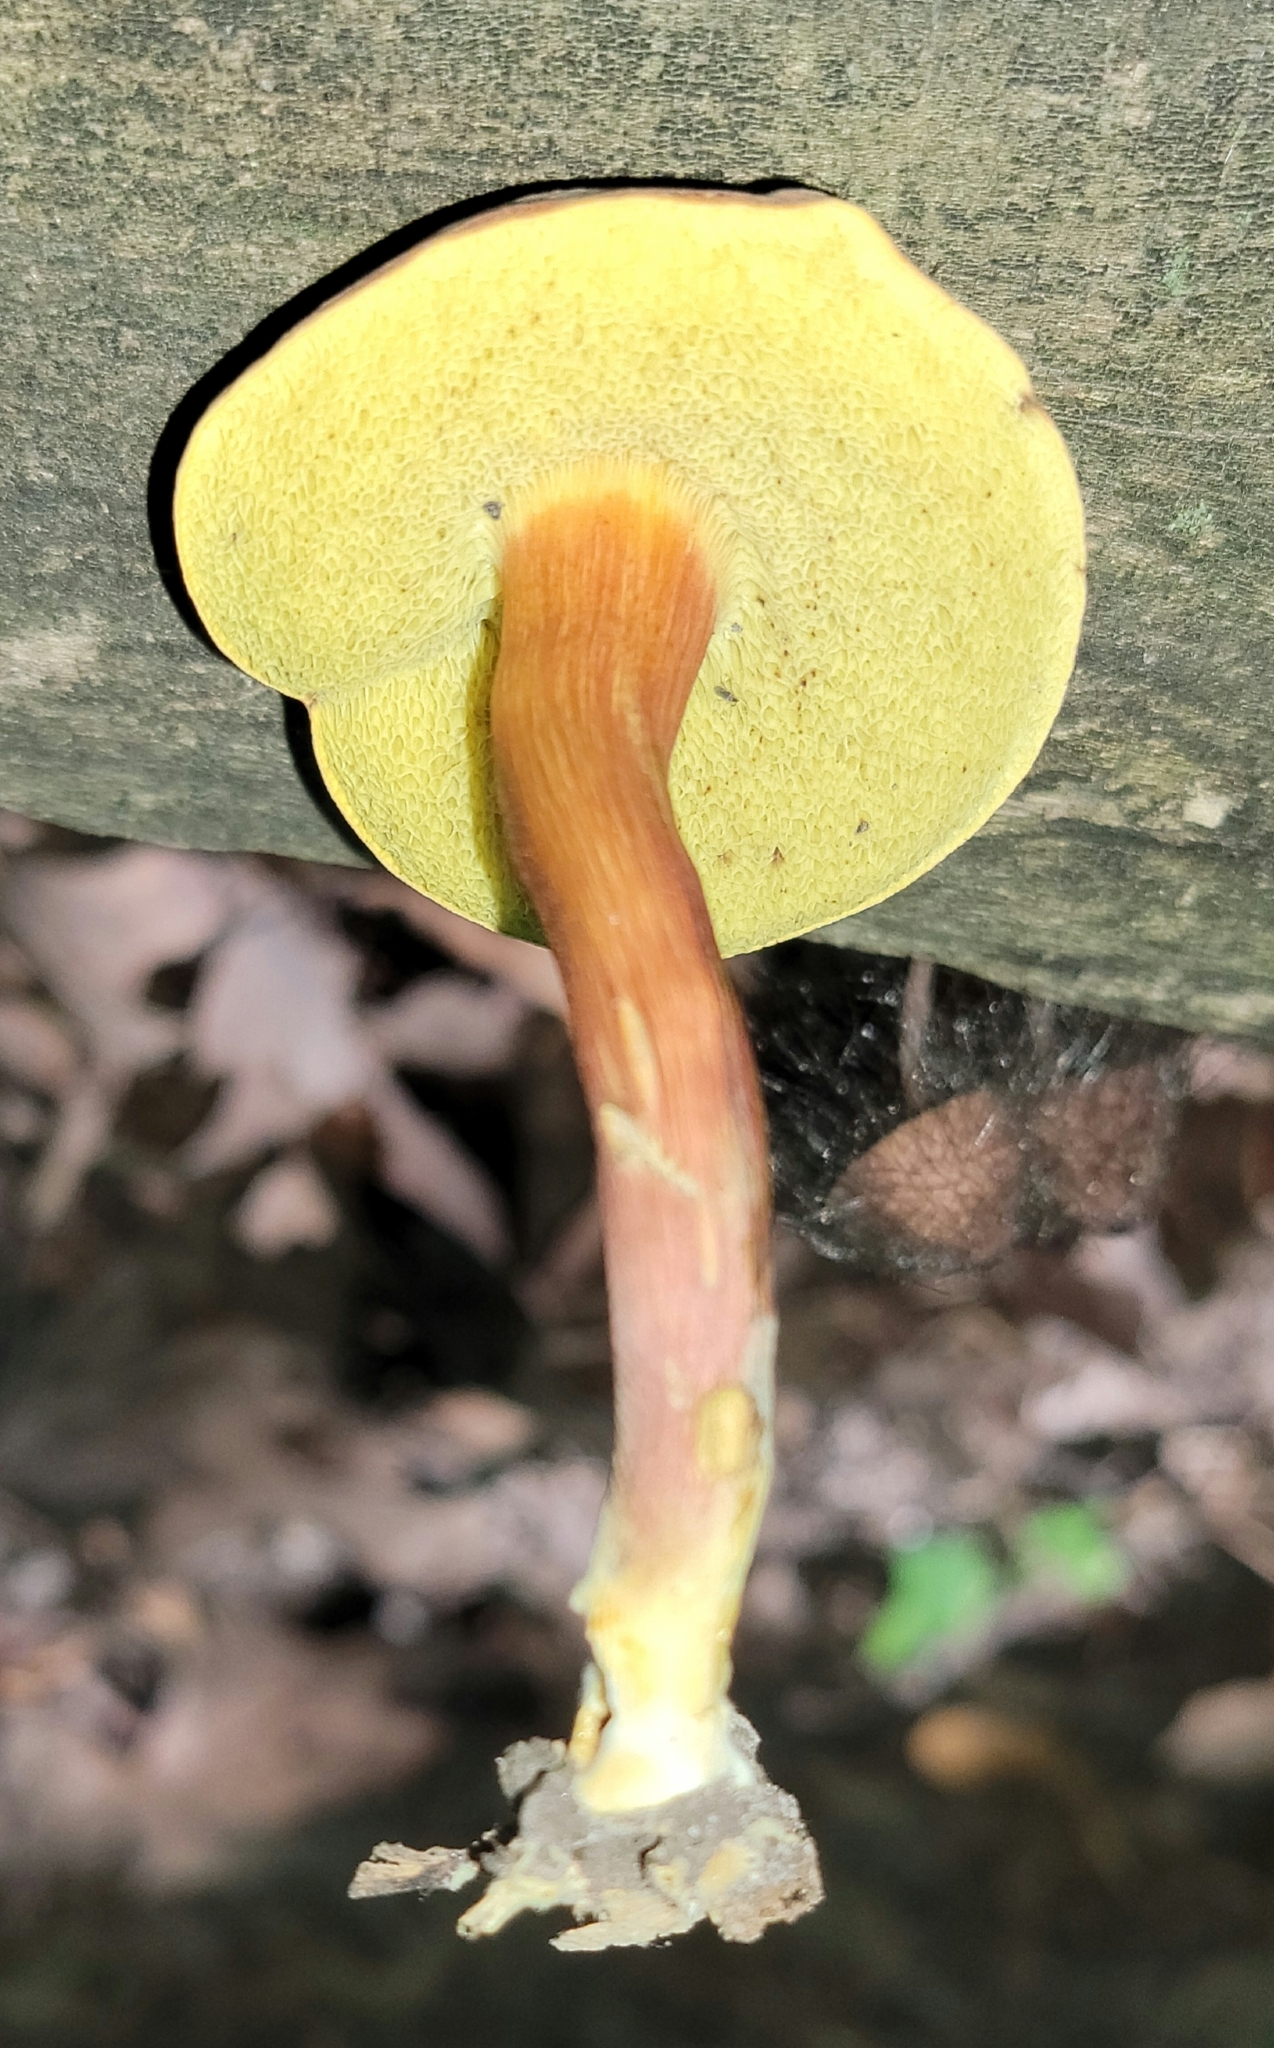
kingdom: Fungi
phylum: Basidiomycota
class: Agaricomycetes
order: Boletales
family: Boletaceae
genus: Xerocomellus
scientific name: Xerocomellus chrysenteron
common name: Red-cracking bolete
